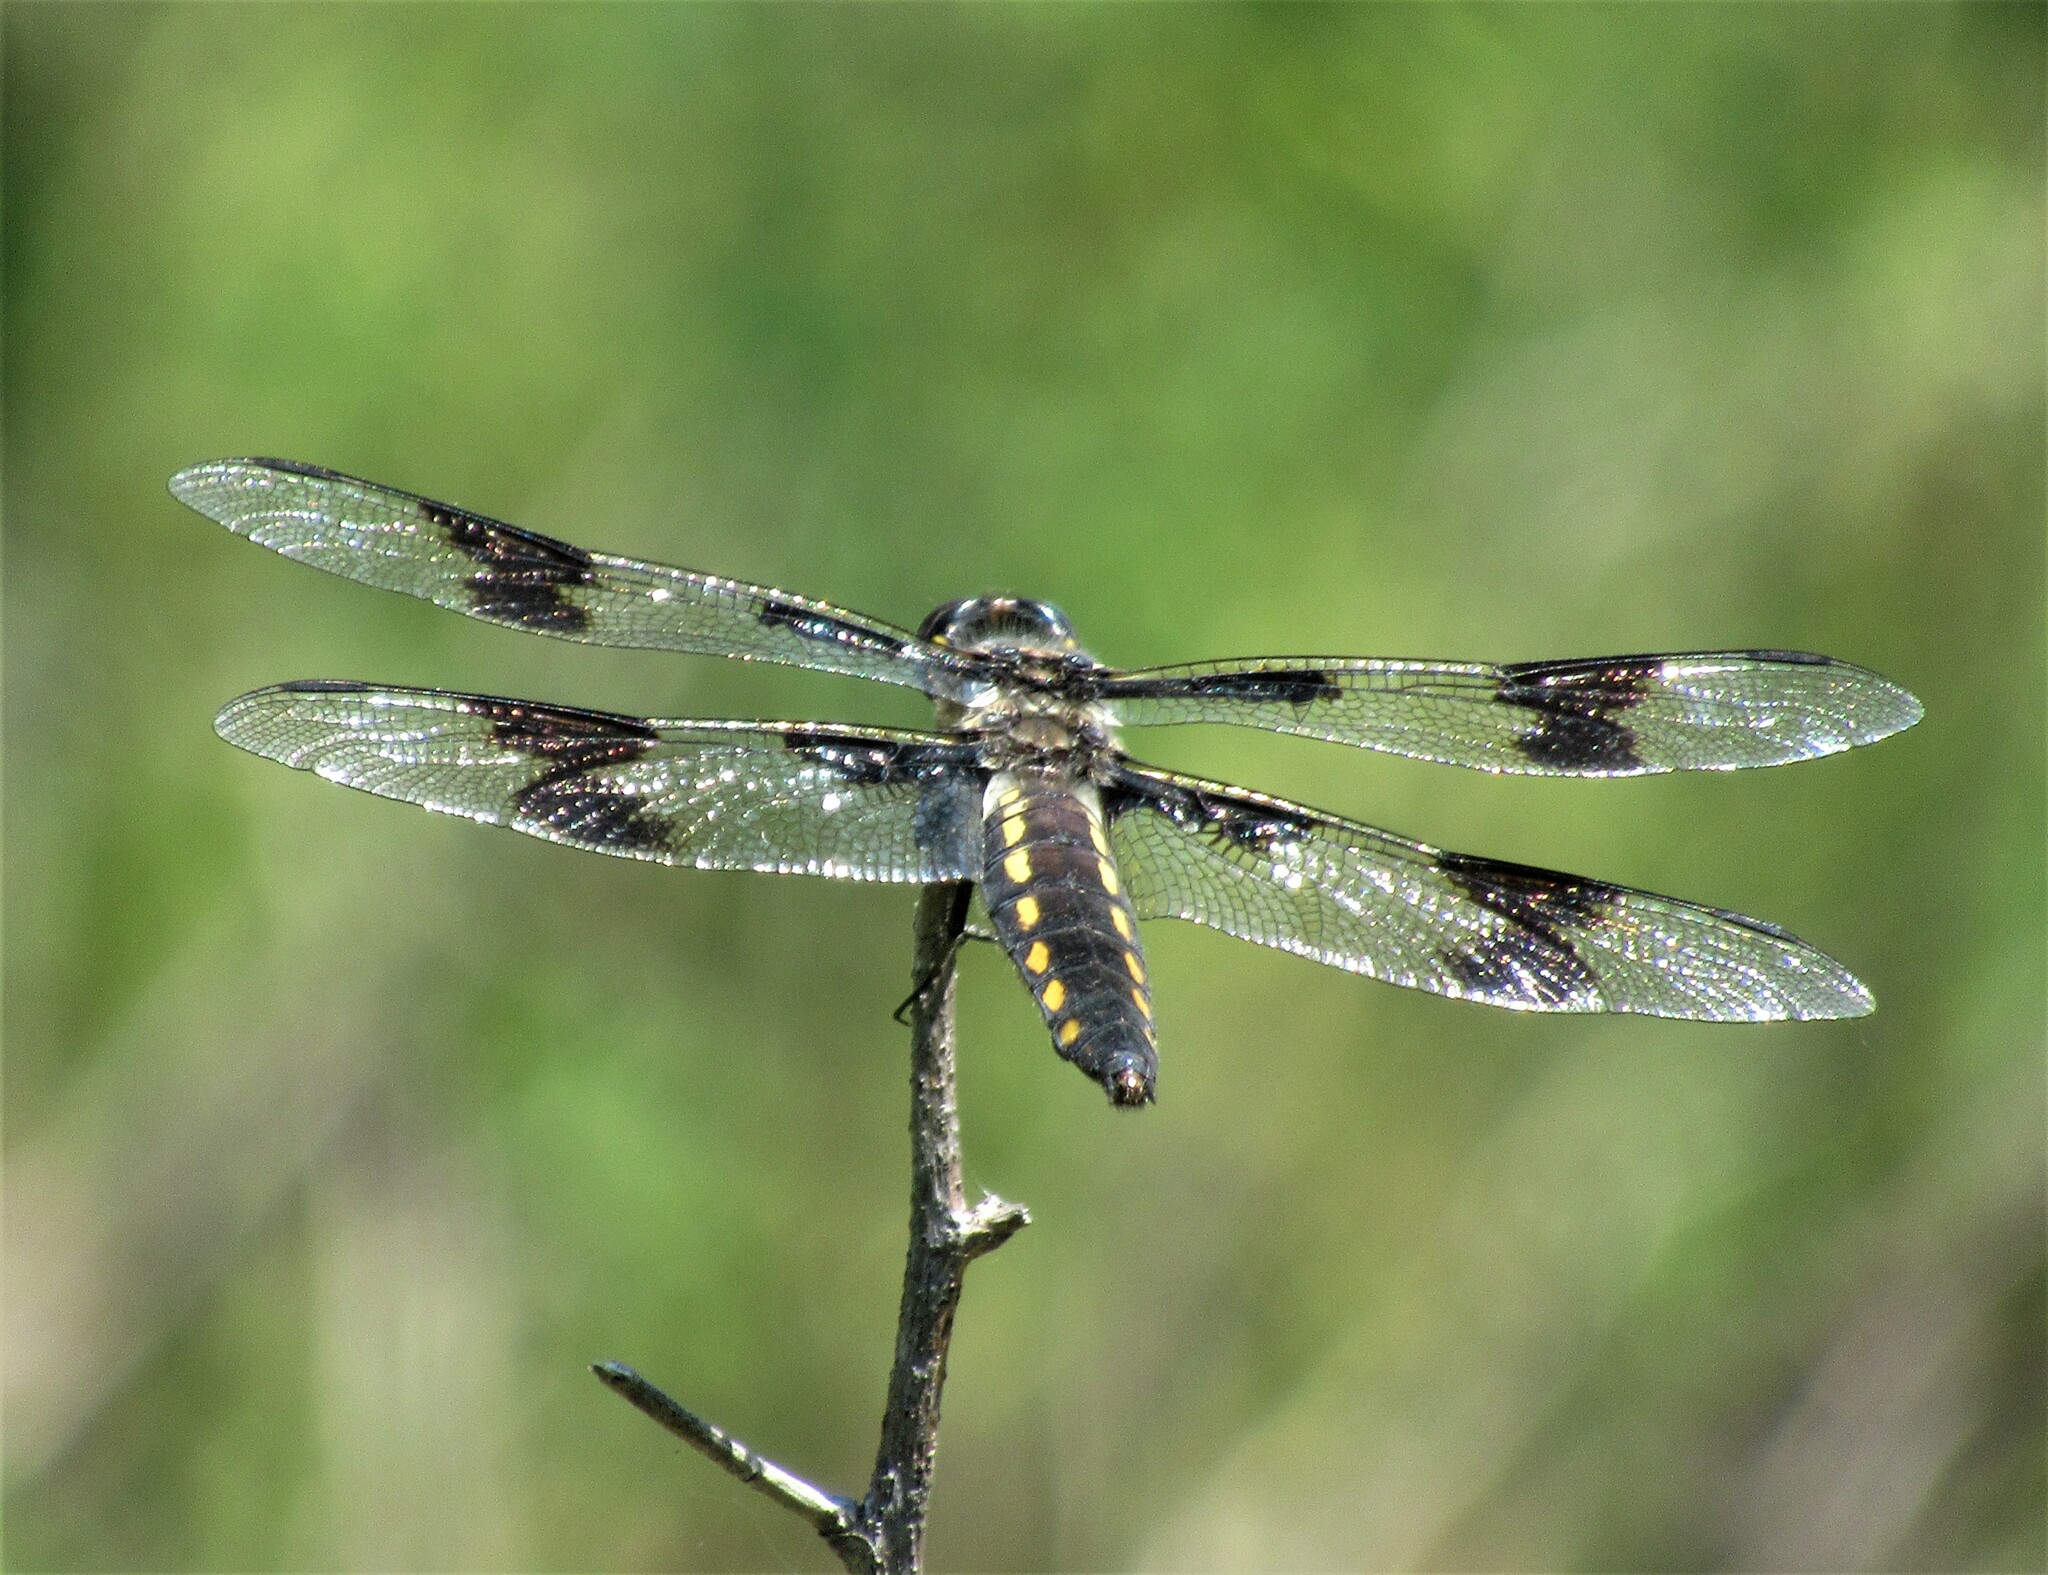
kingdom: Animalia
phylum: Arthropoda
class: Insecta
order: Odonata
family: Libellulidae
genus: Libellula
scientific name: Libellula forensis
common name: Eight-spotted skimmer
